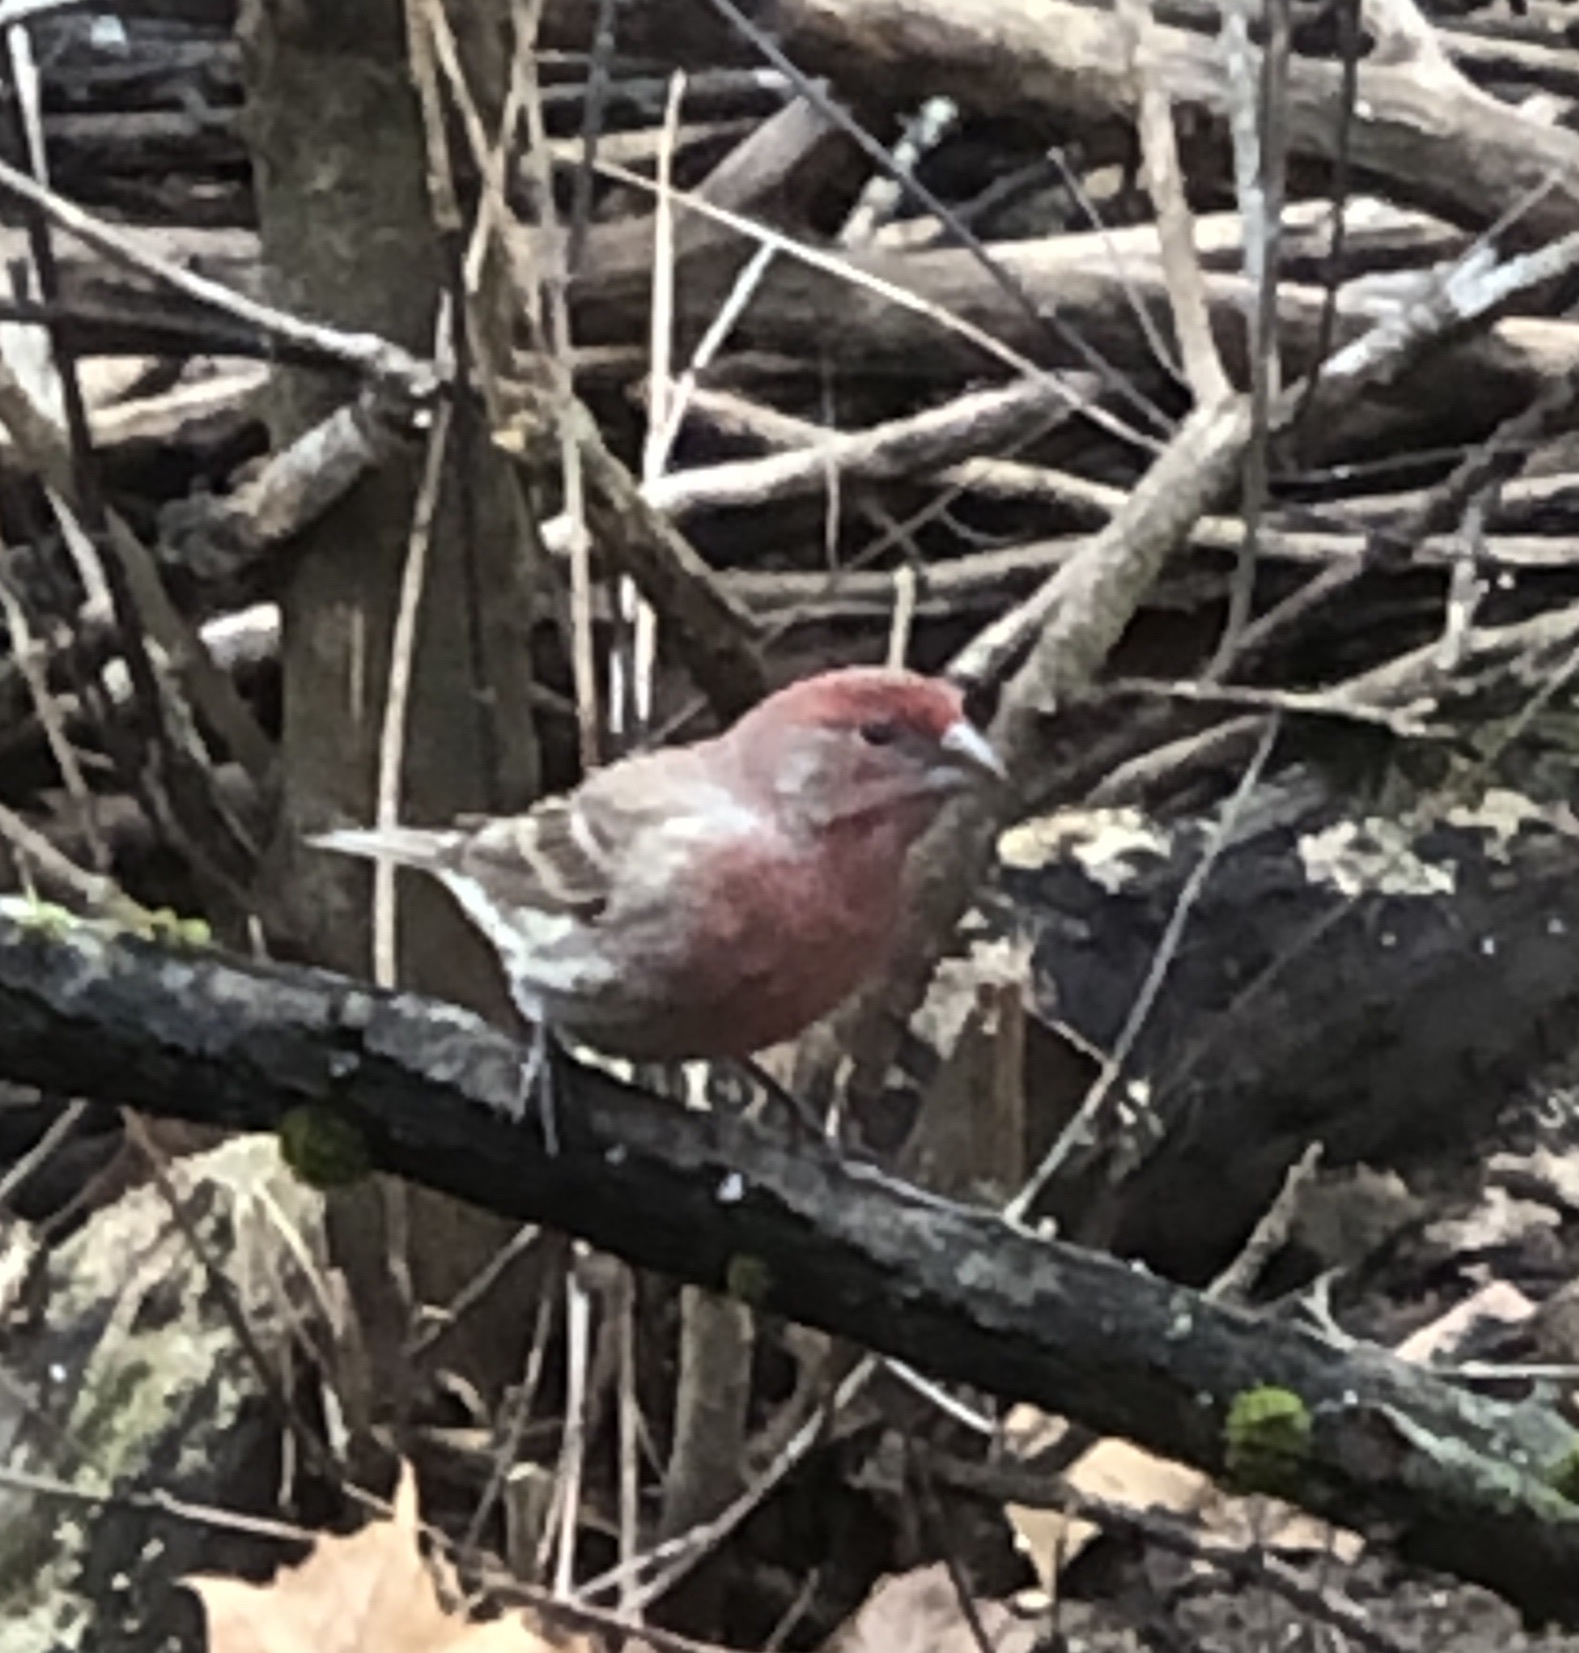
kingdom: Animalia
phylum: Chordata
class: Aves
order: Passeriformes
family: Fringillidae
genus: Haemorhous
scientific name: Haemorhous mexicanus
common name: House finch
